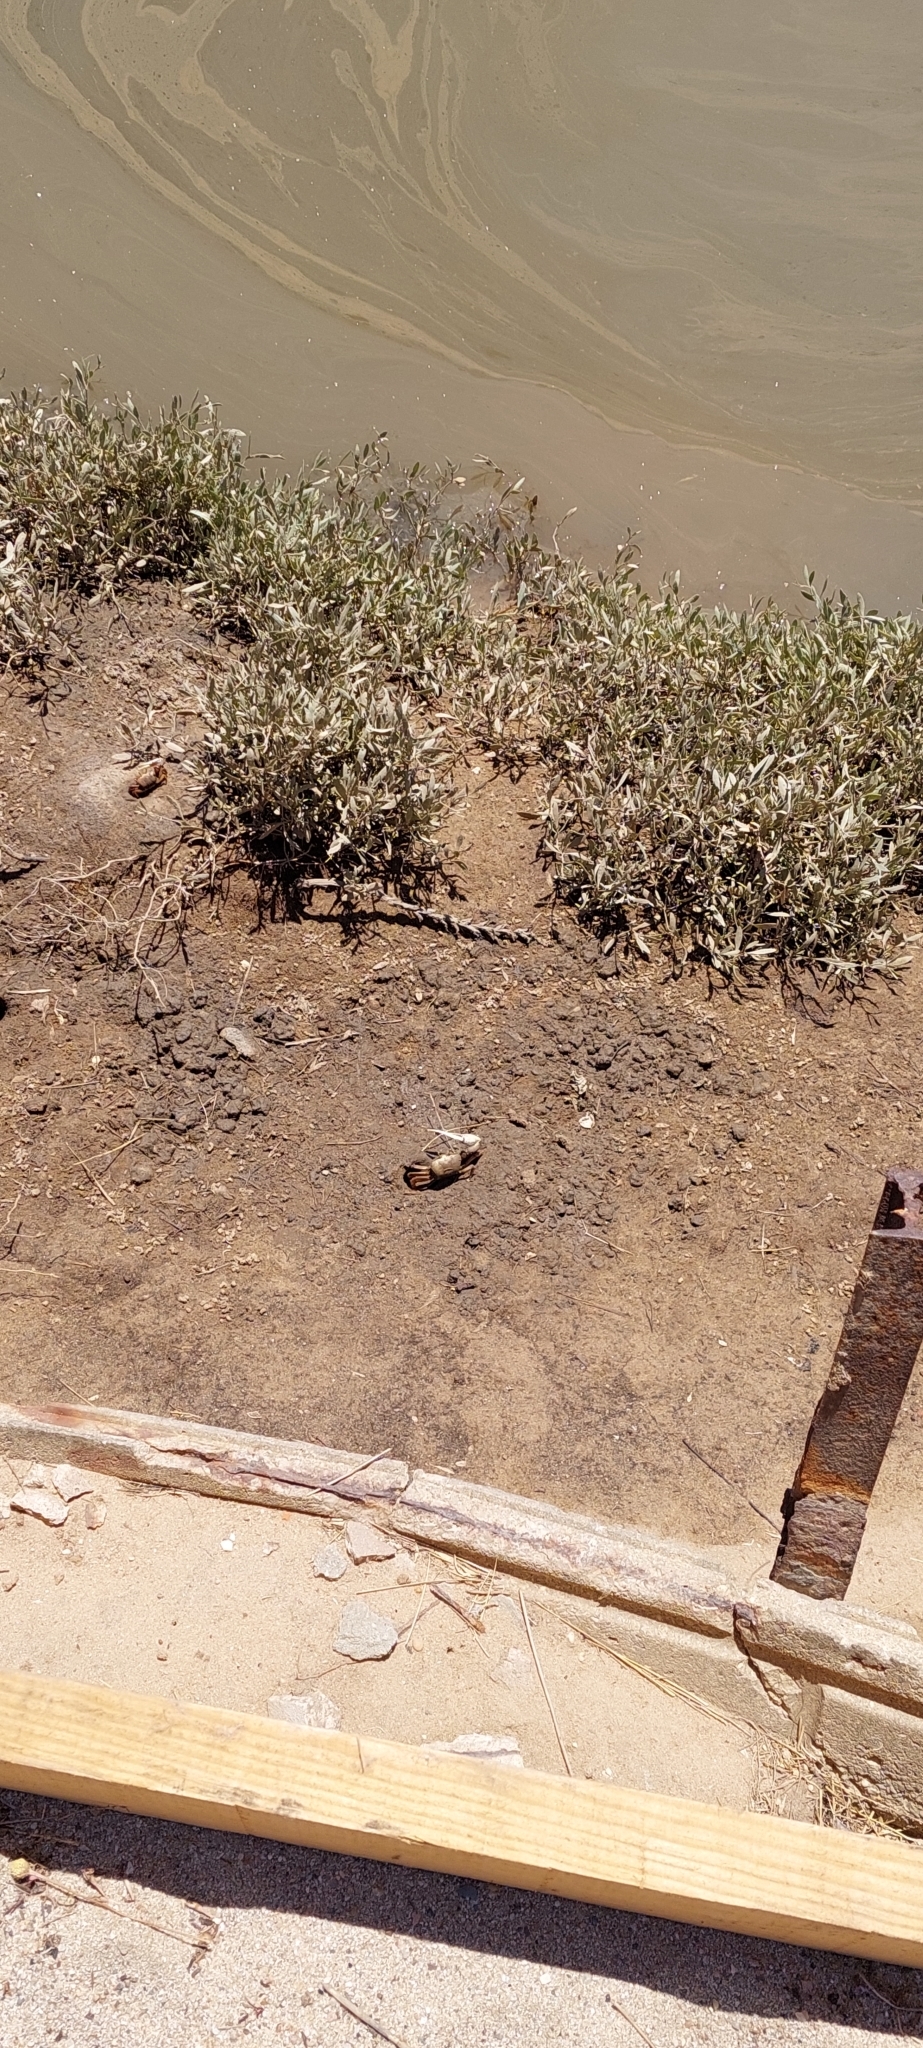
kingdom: Animalia
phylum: Arthropoda
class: Malacostraca
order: Decapoda
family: Ocypodidae
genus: Afruca
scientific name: Afruca tangeri
